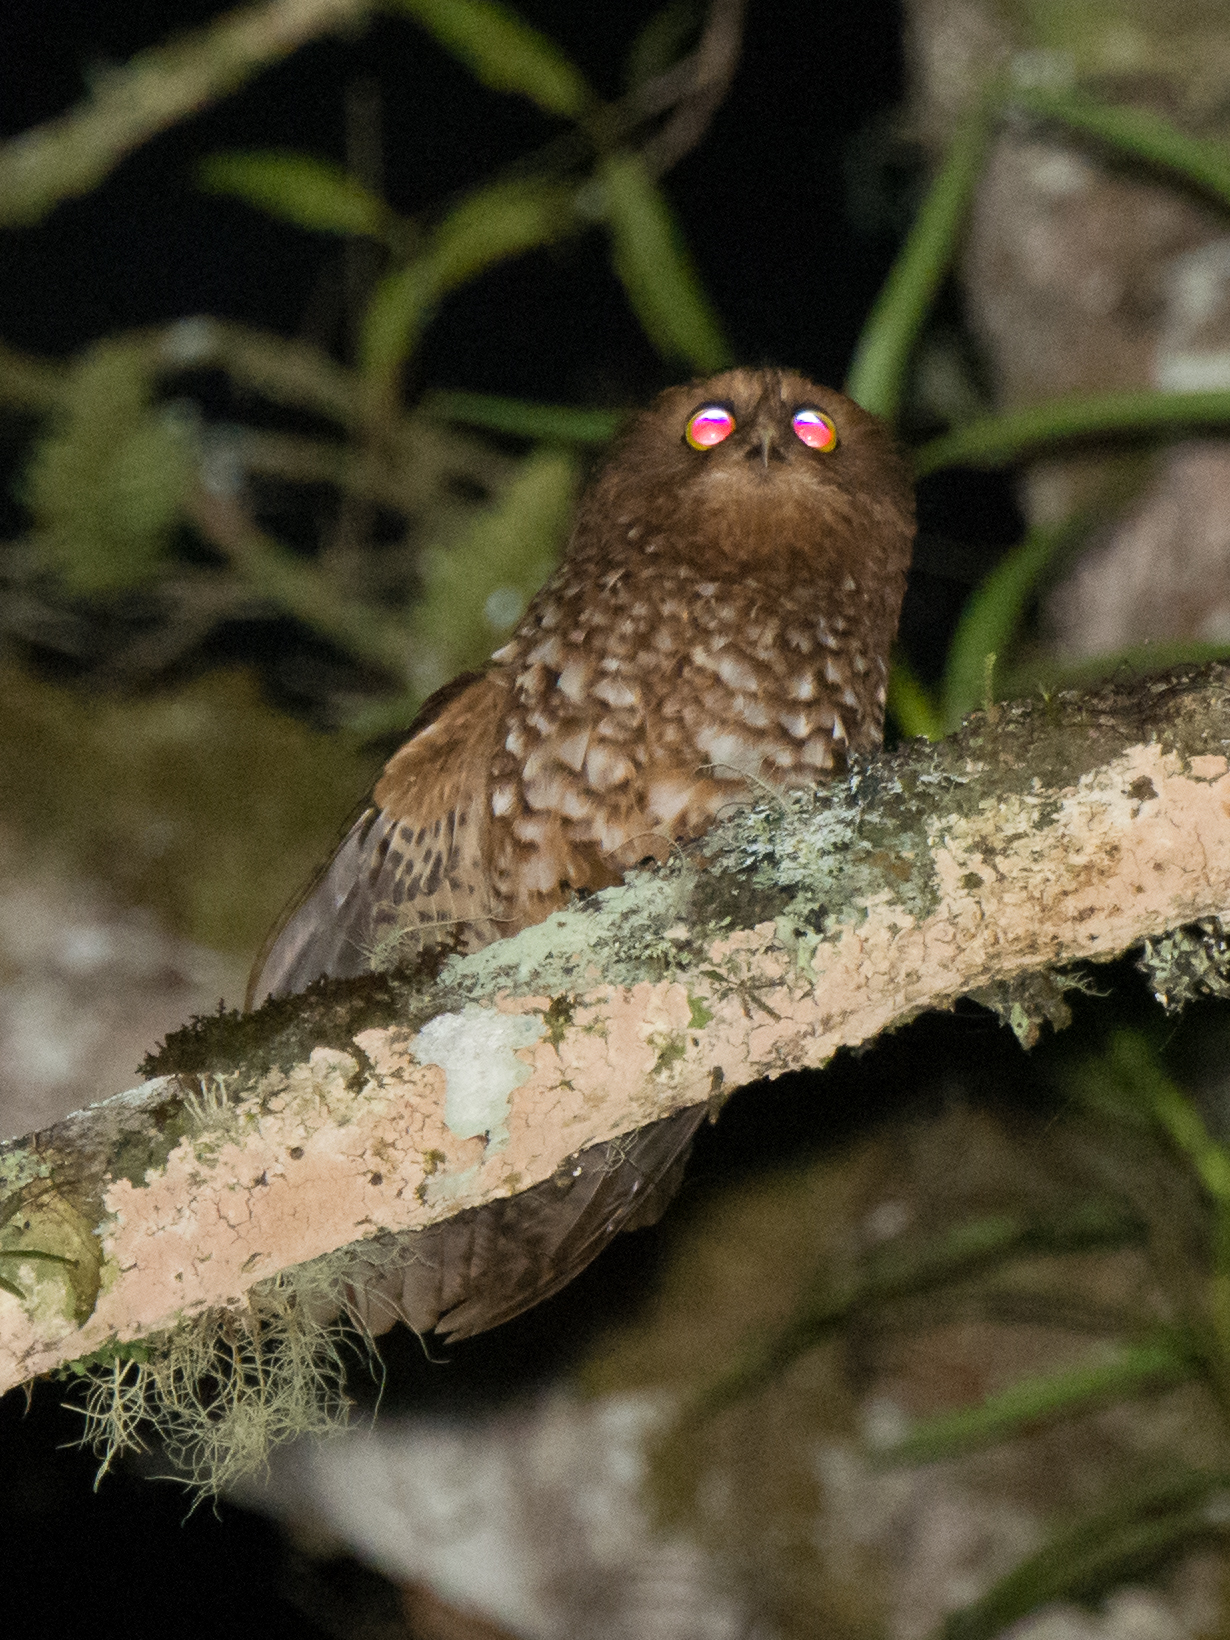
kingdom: Animalia
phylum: Chordata
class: Aves
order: Strigiformes
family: Strigidae
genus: Ninox
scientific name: Ninox ios
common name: Cinnabar boobook
